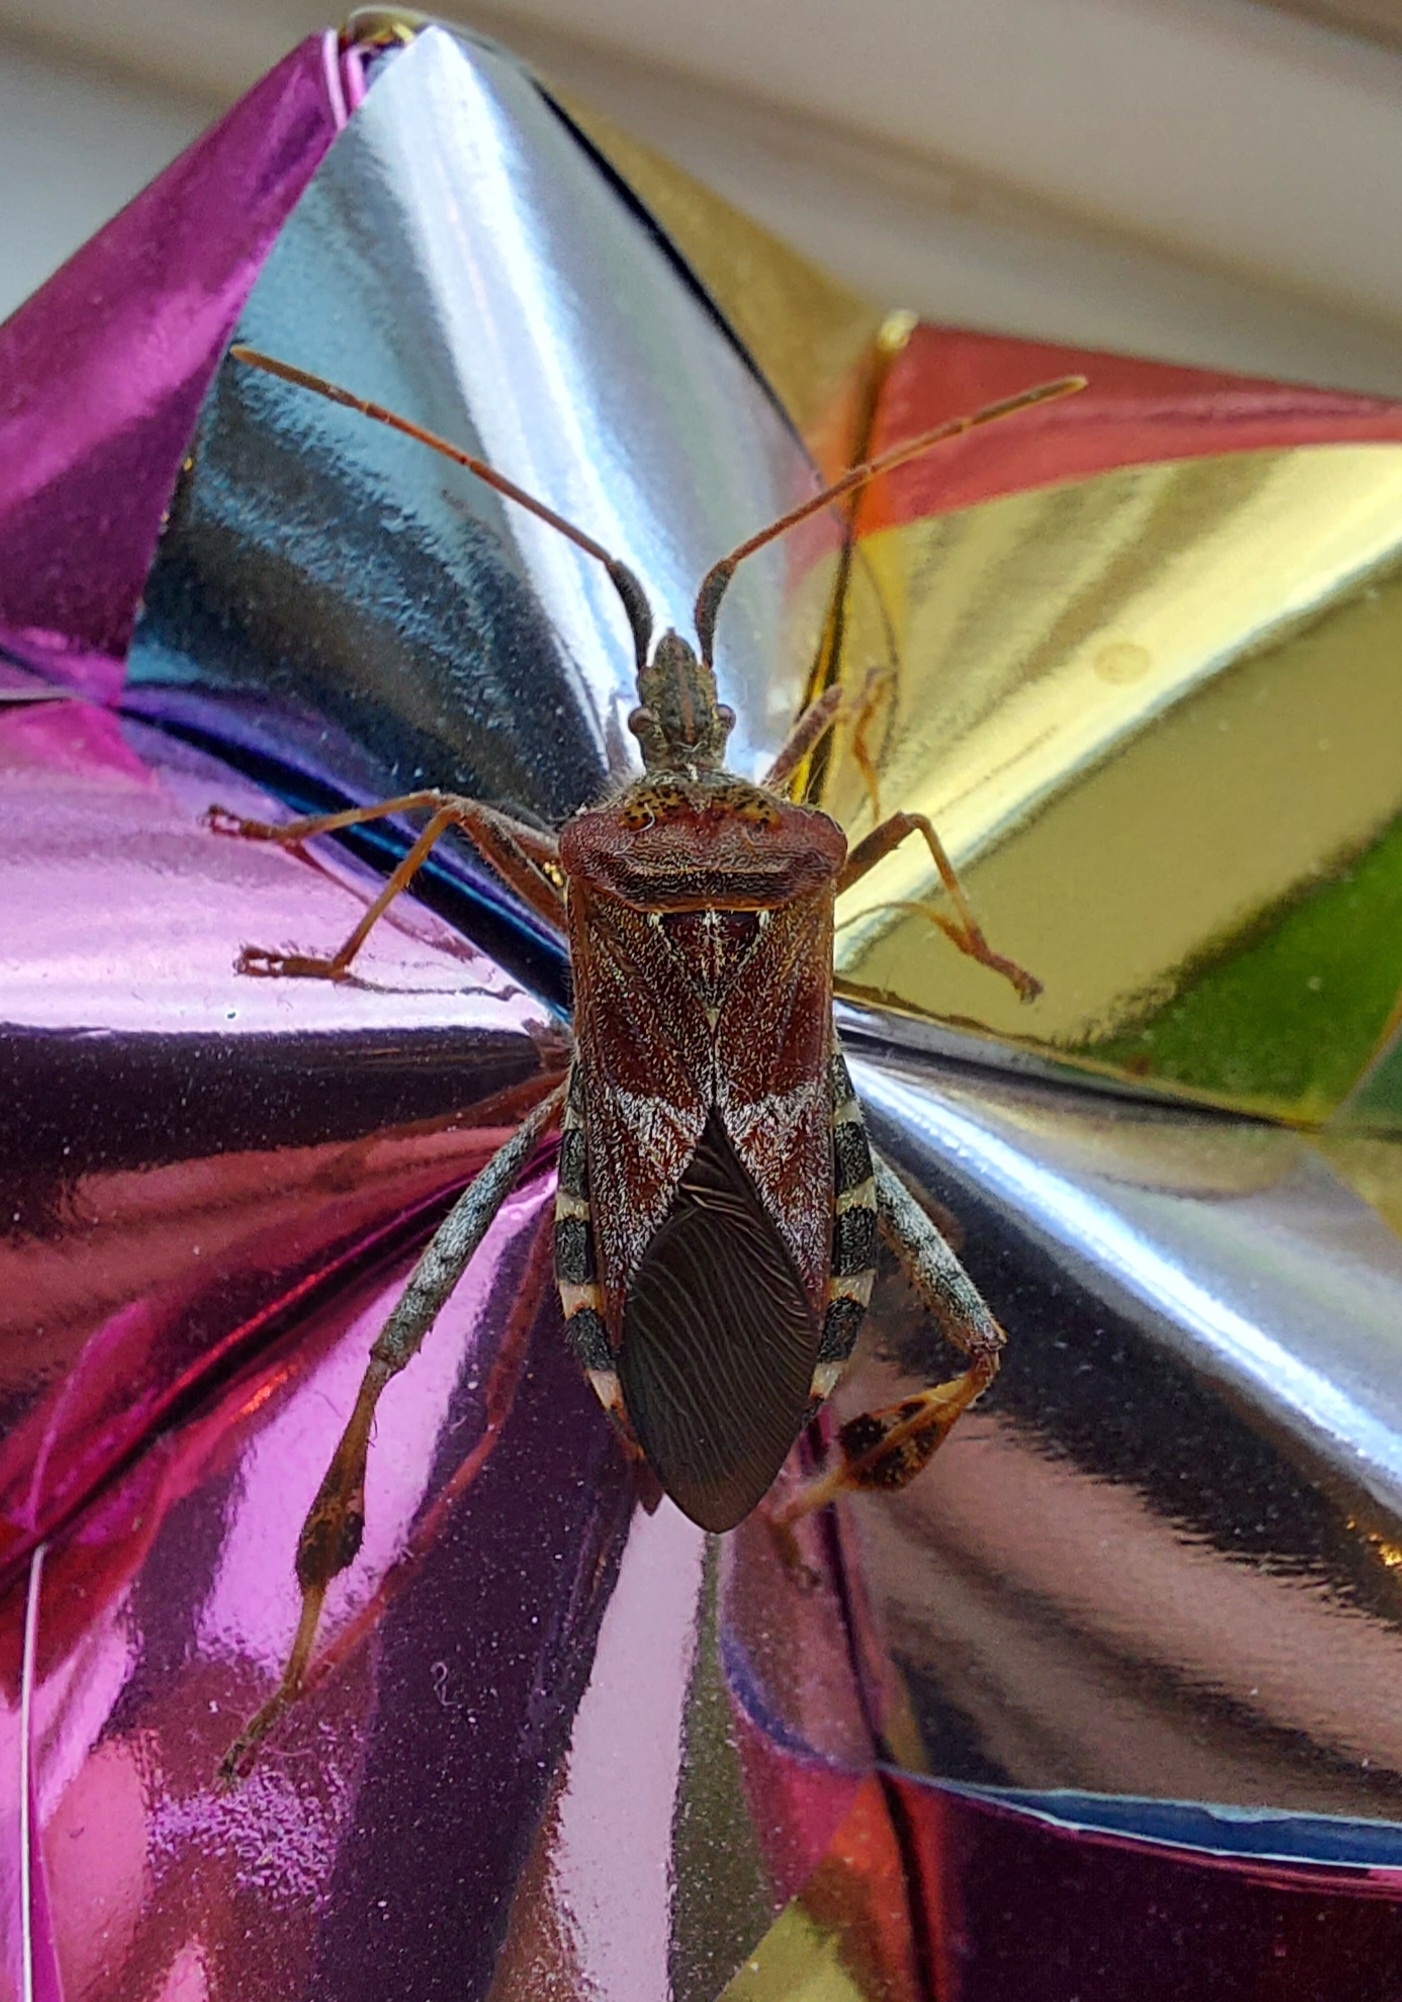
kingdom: Animalia
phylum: Arthropoda
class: Insecta
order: Hemiptera
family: Coreidae
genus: Leptoglossus
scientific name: Leptoglossus occidentalis
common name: Western conifer-seed bug
